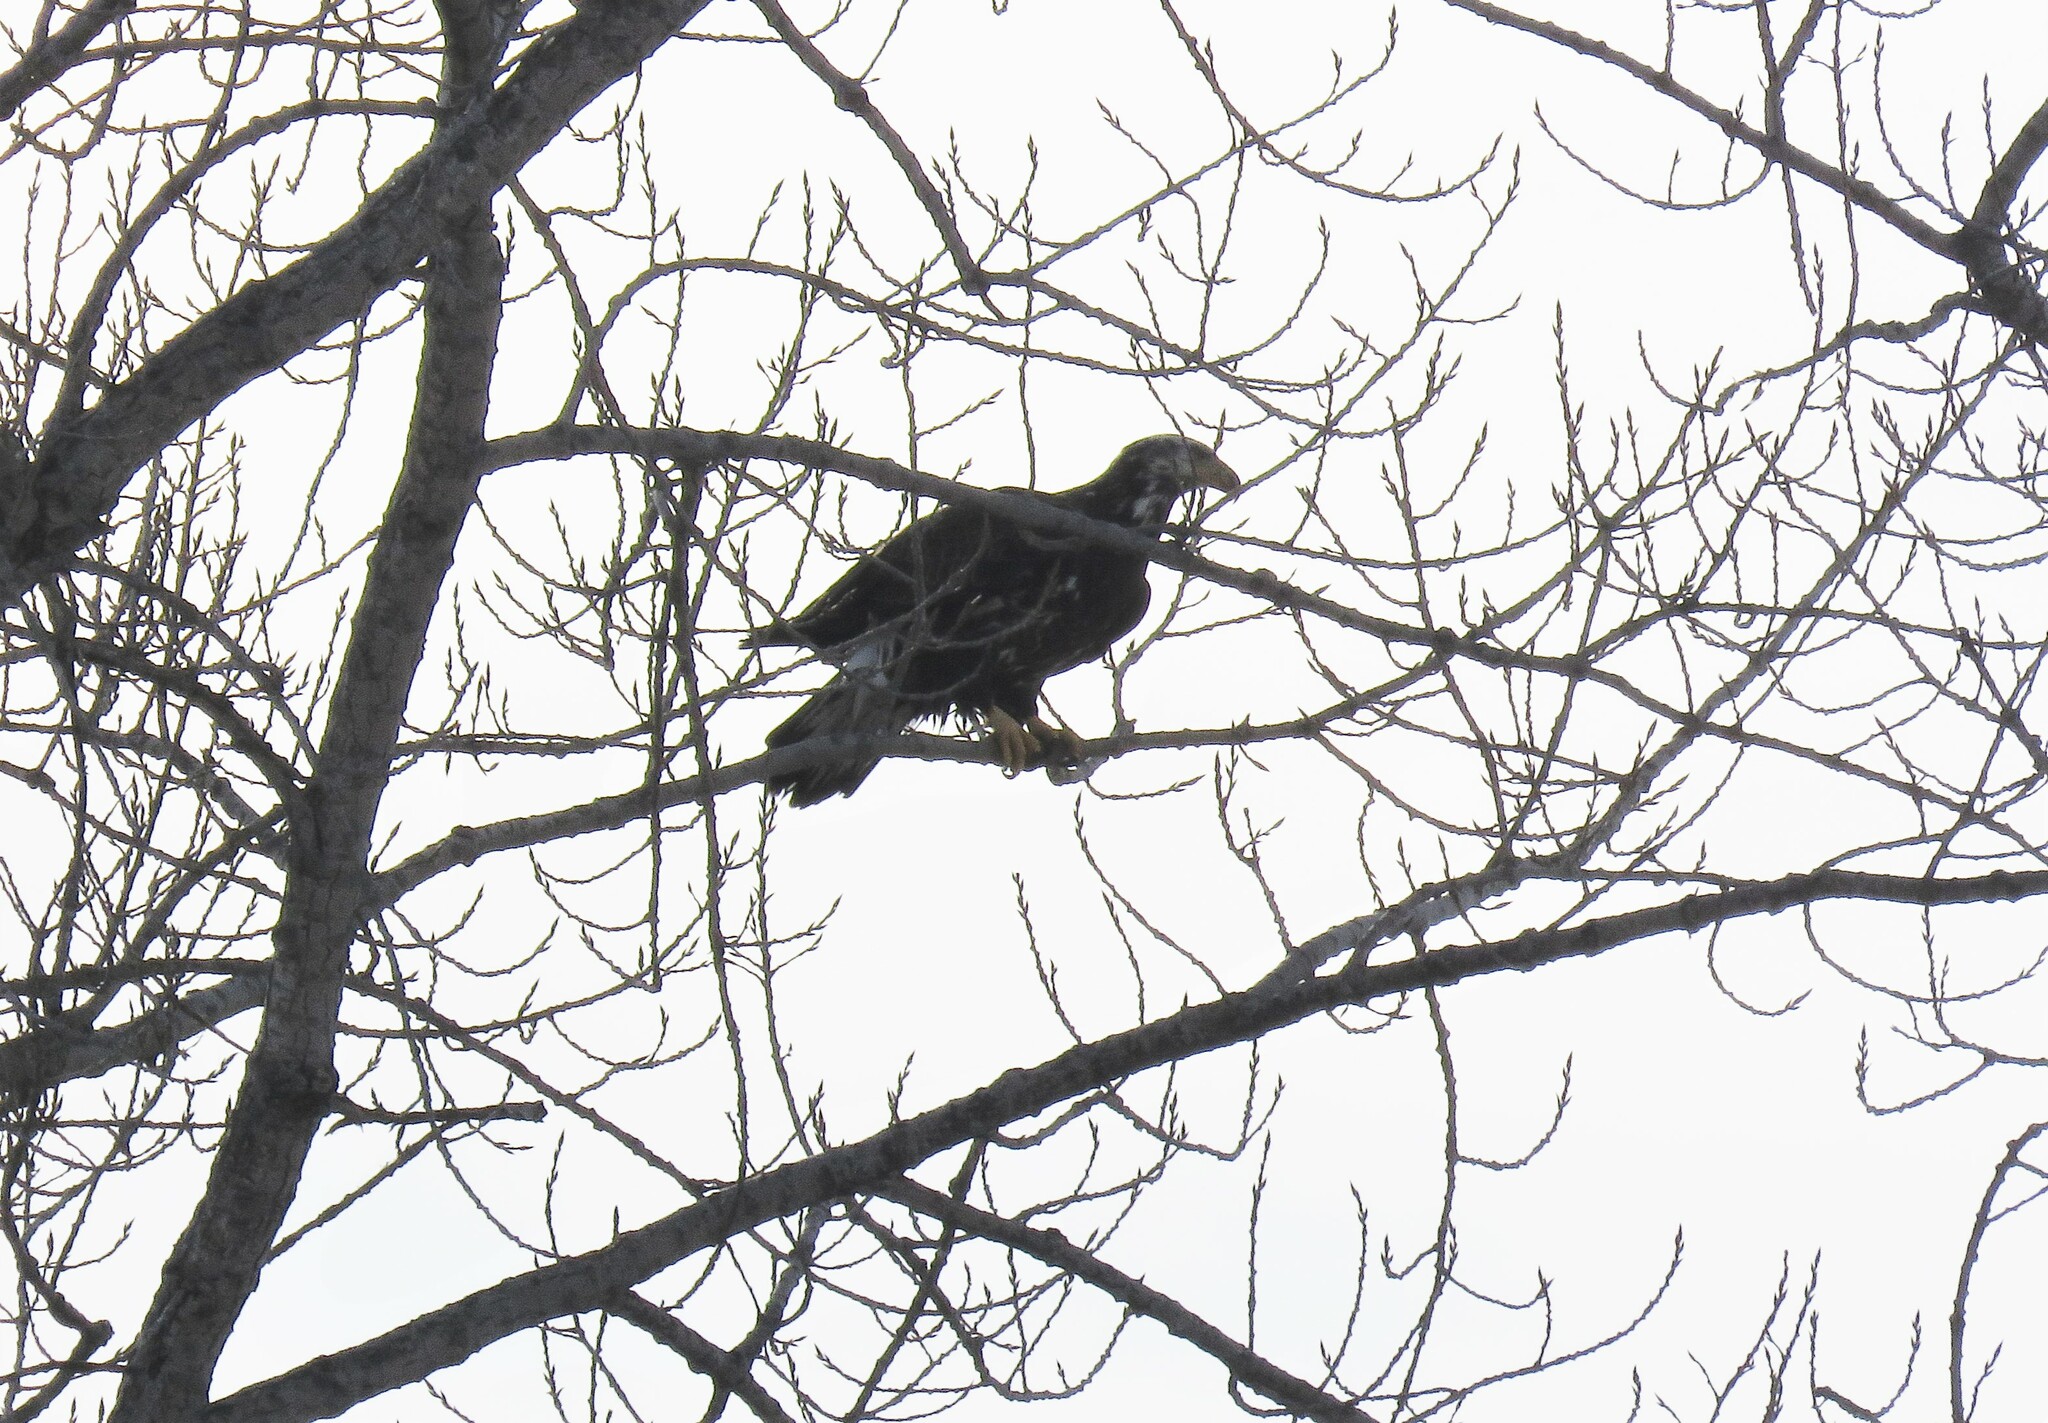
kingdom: Animalia
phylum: Chordata
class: Aves
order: Accipitriformes
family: Accipitridae
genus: Haliaeetus
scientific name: Haliaeetus leucocephalus
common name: Bald eagle
